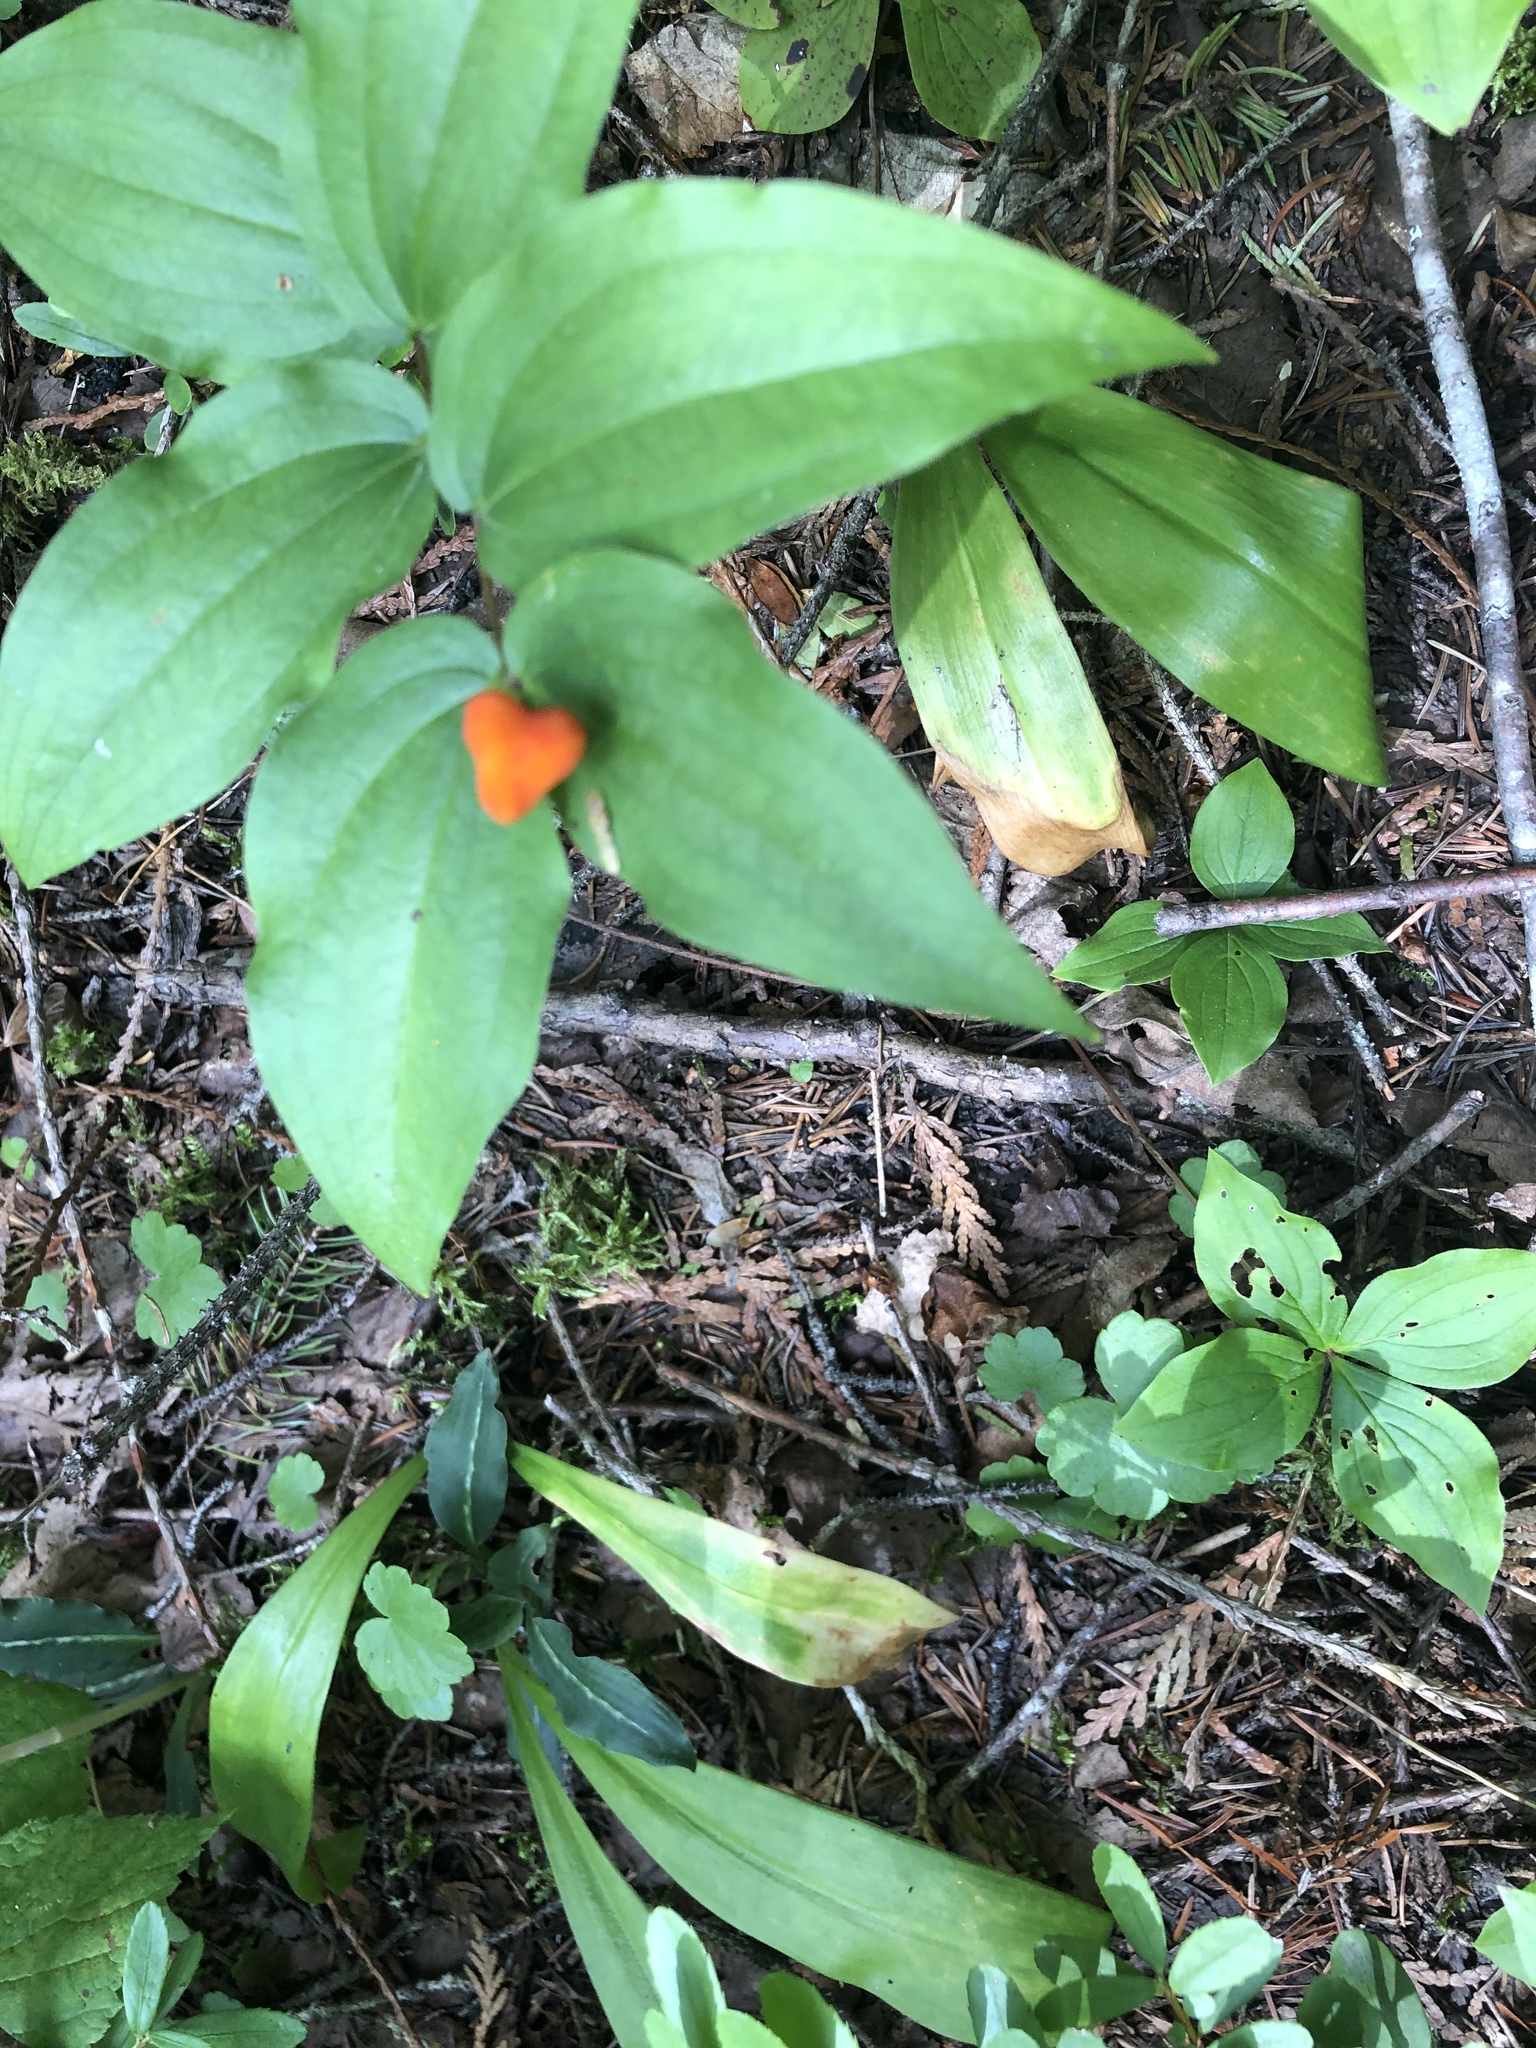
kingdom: Plantae
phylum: Tracheophyta
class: Liliopsida
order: Liliales
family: Liliaceae
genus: Prosartes
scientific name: Prosartes trachycarpa
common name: Rough-fruit fairy-bells
